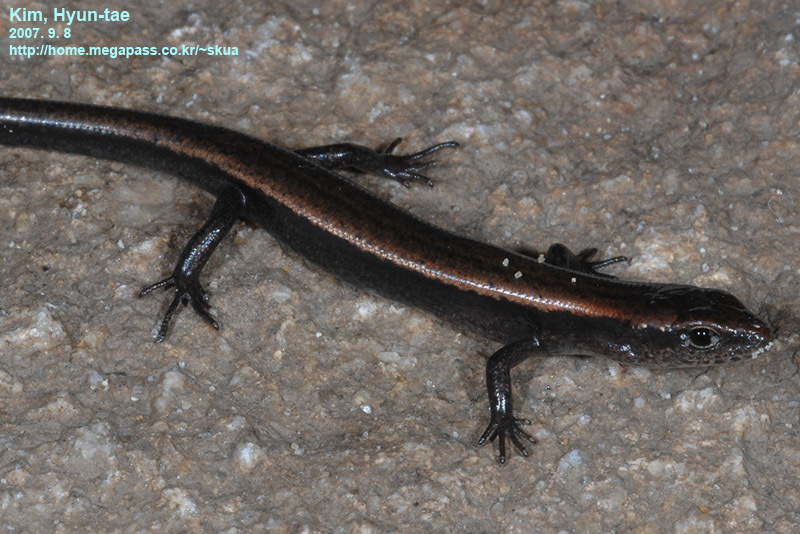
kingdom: Animalia
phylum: Chordata
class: Squamata
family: Scincidae
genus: Scincella
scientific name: Scincella huanrenensis
